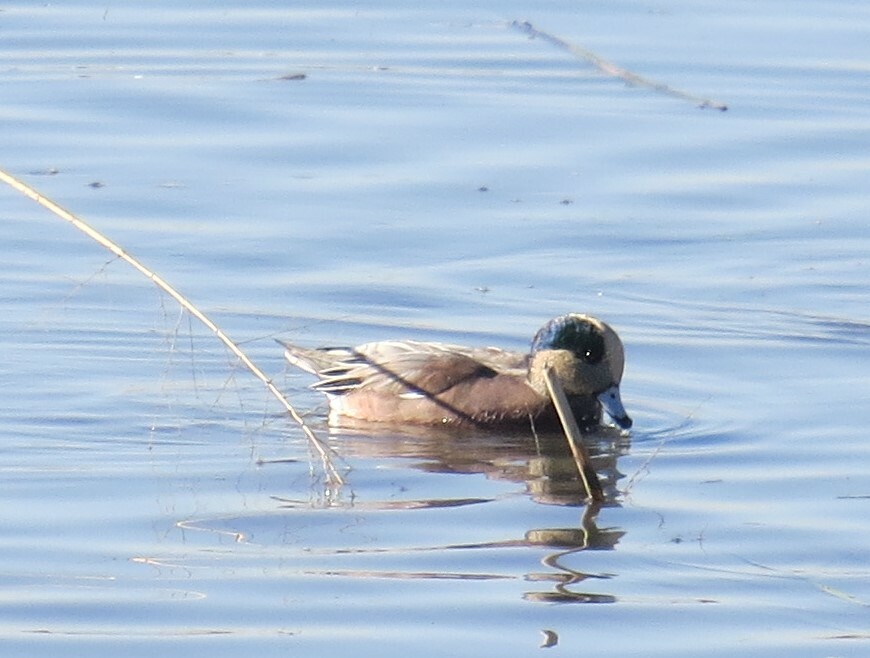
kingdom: Animalia
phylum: Chordata
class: Aves
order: Anseriformes
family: Anatidae
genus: Mareca
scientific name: Mareca americana
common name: American wigeon
